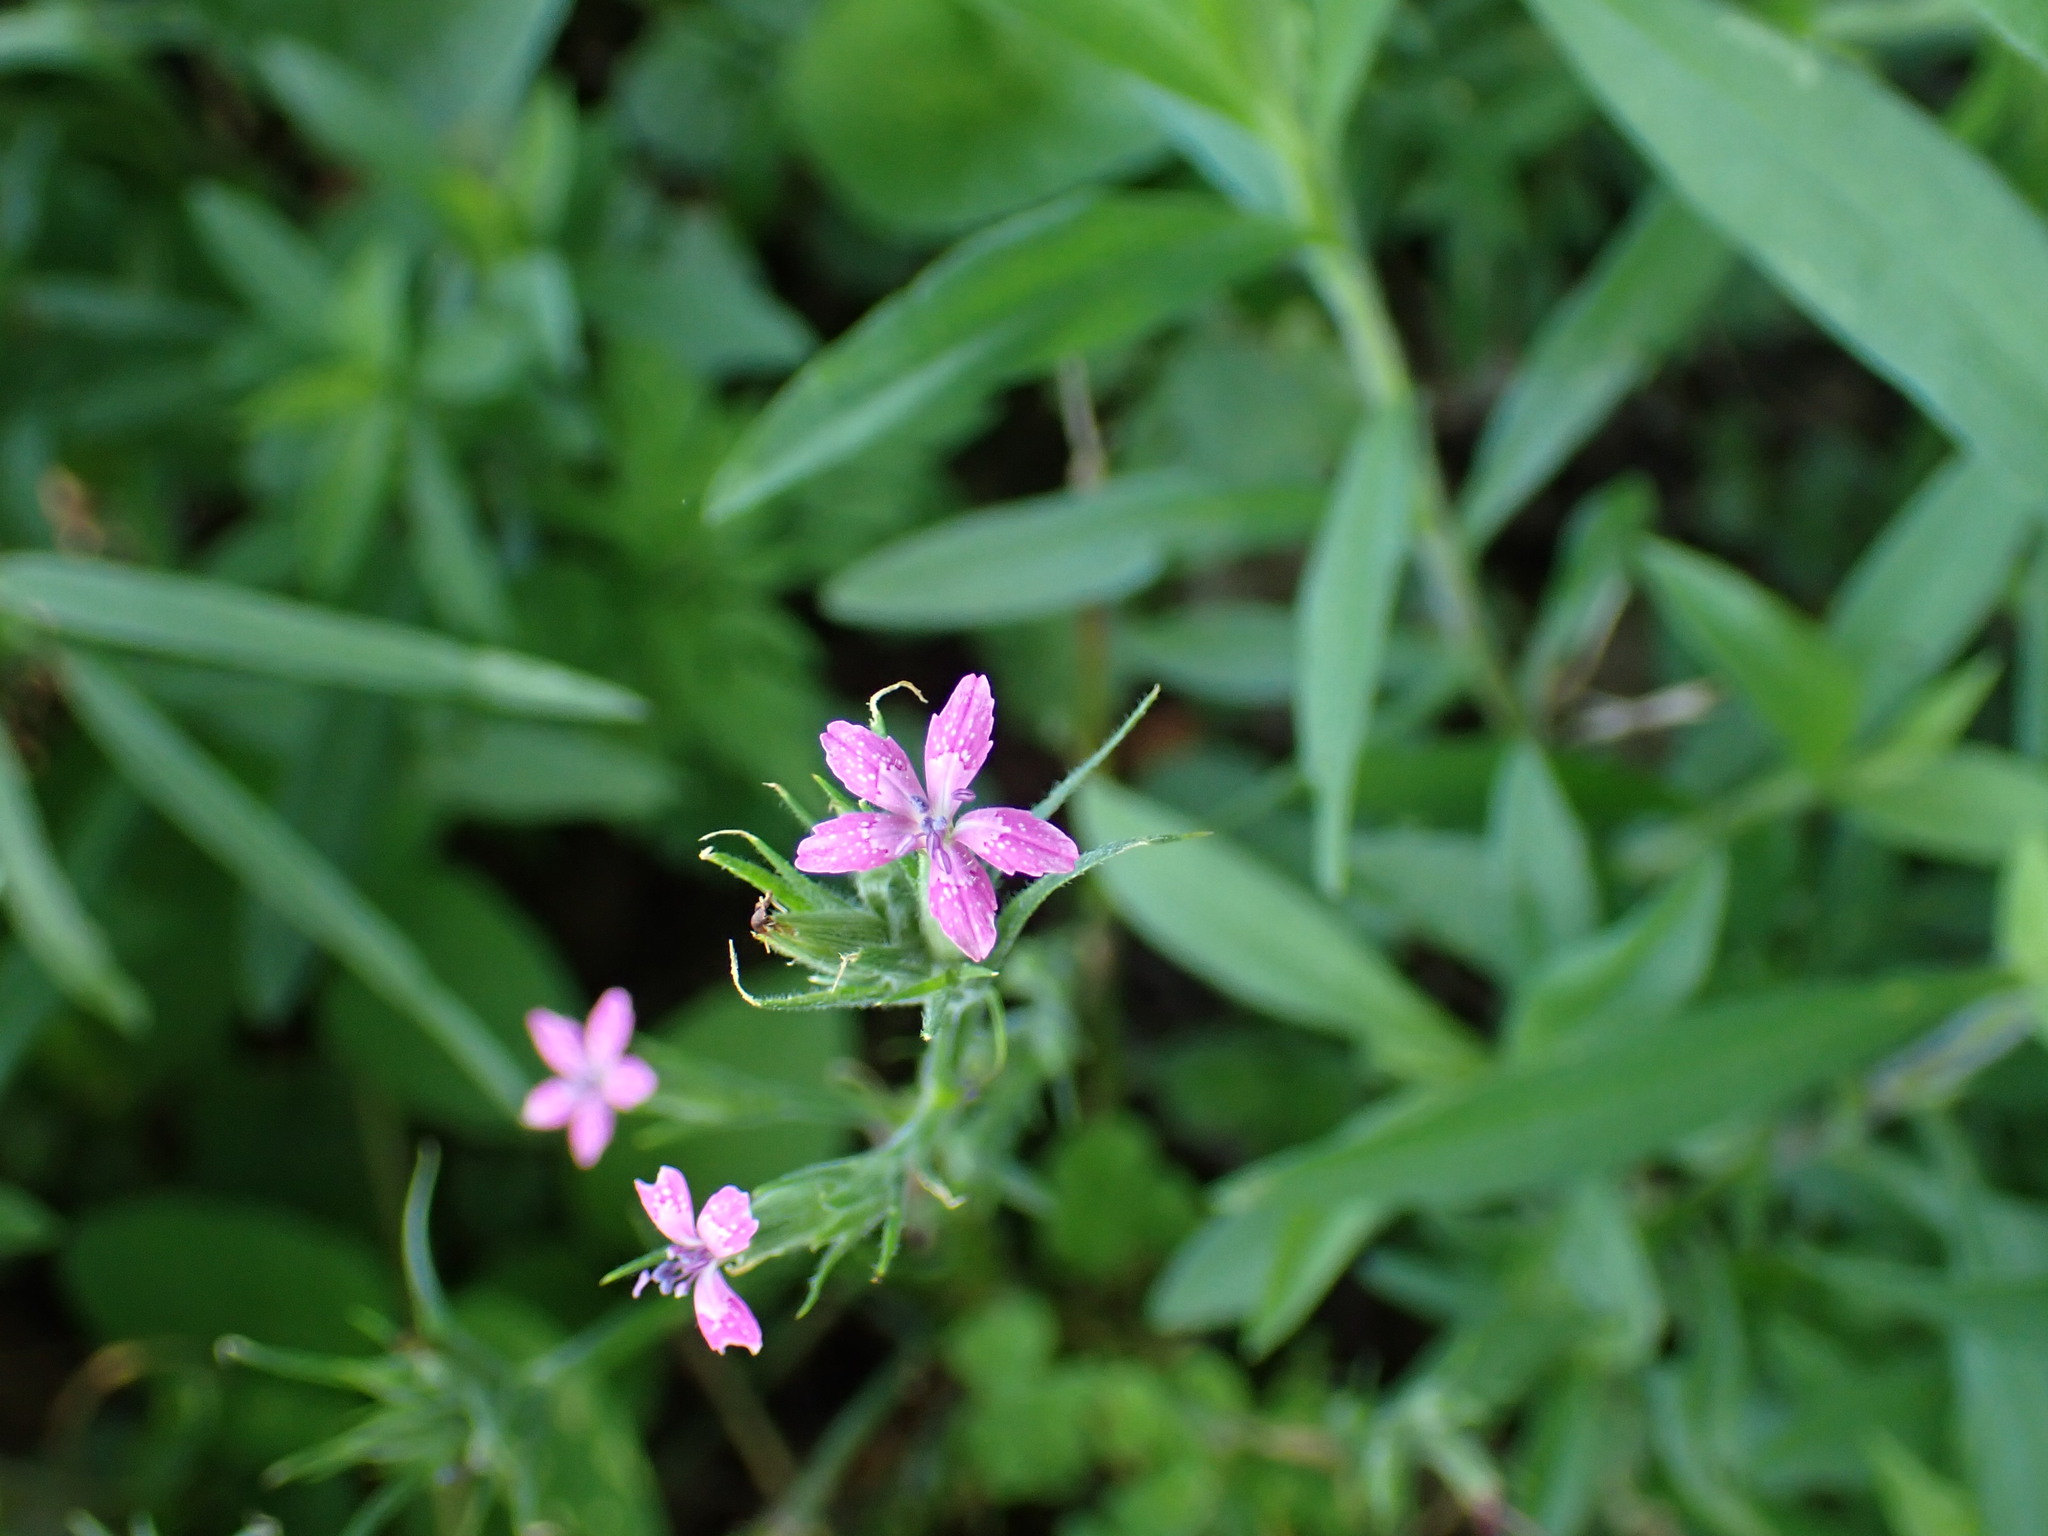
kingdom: Plantae
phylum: Tracheophyta
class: Magnoliopsida
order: Caryophyllales
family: Caryophyllaceae
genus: Dianthus
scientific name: Dianthus armeria
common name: Deptford pink
